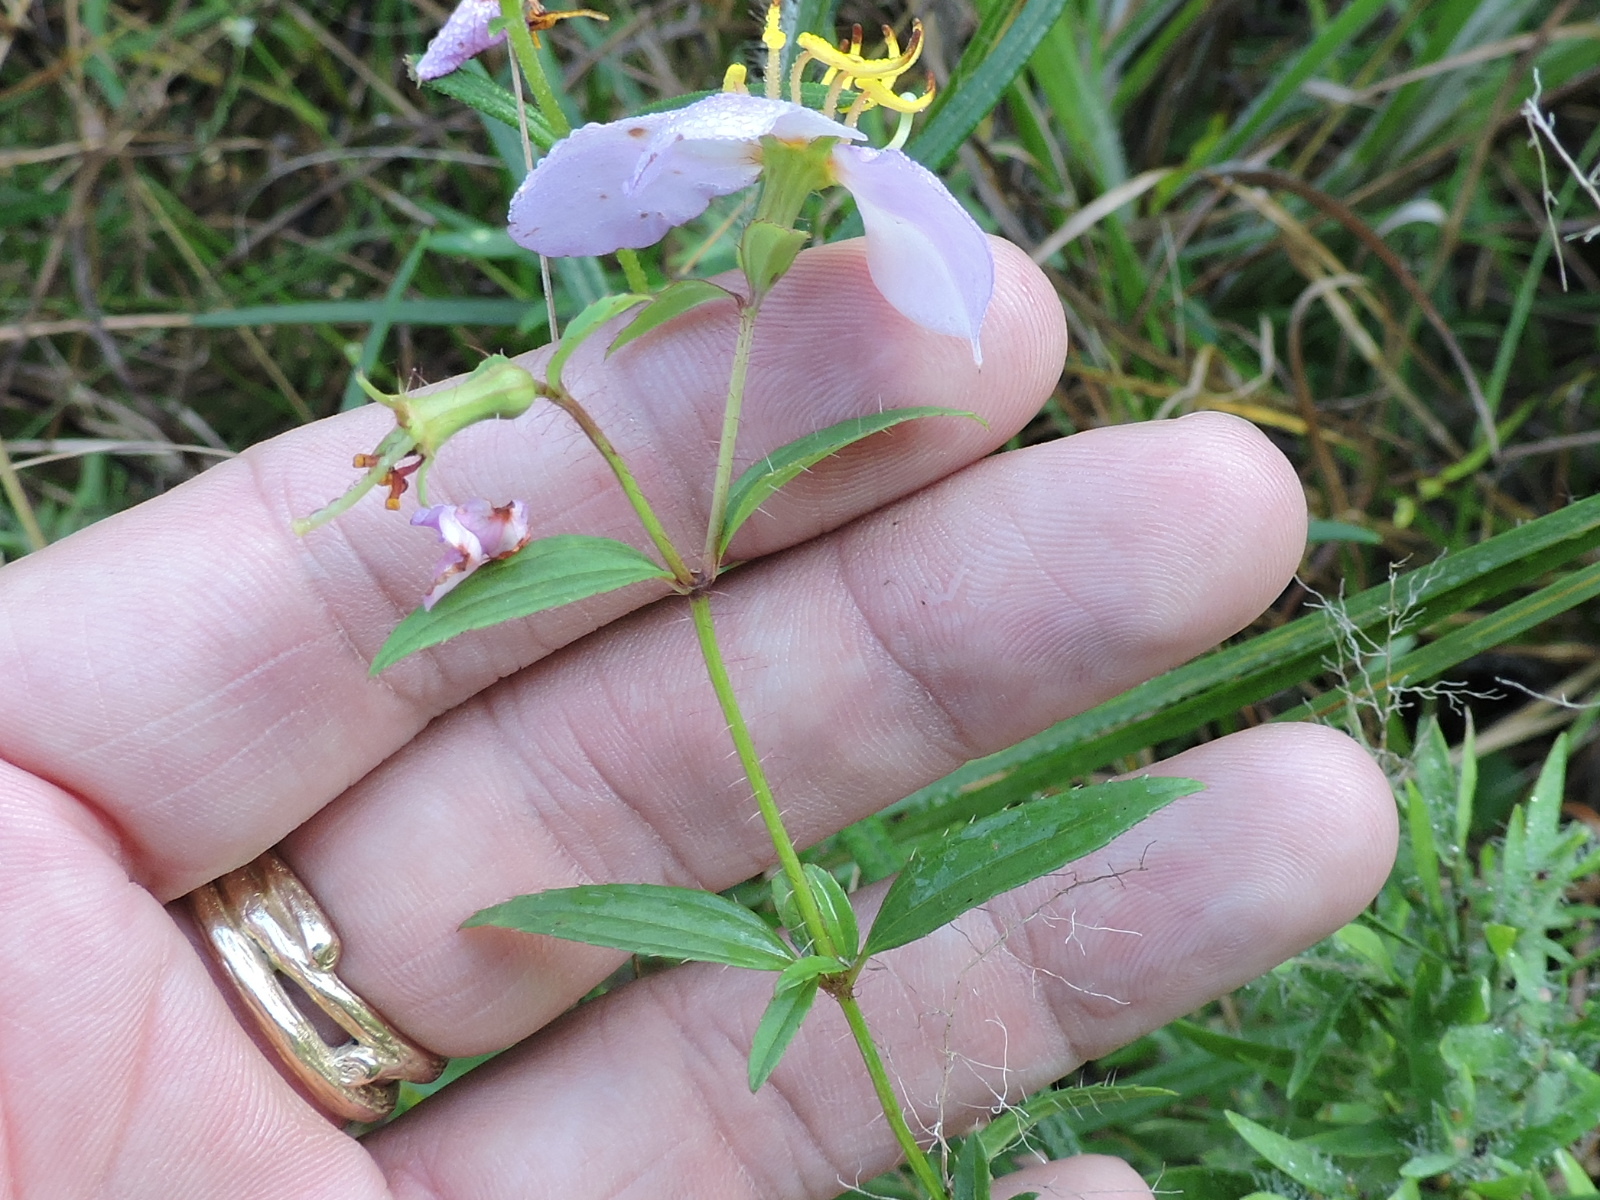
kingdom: Plantae
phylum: Tracheophyta
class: Magnoliopsida
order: Myrtales
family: Melastomataceae
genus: Rhexia
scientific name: Rhexia mariana
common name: Dull meadow-pitcher
